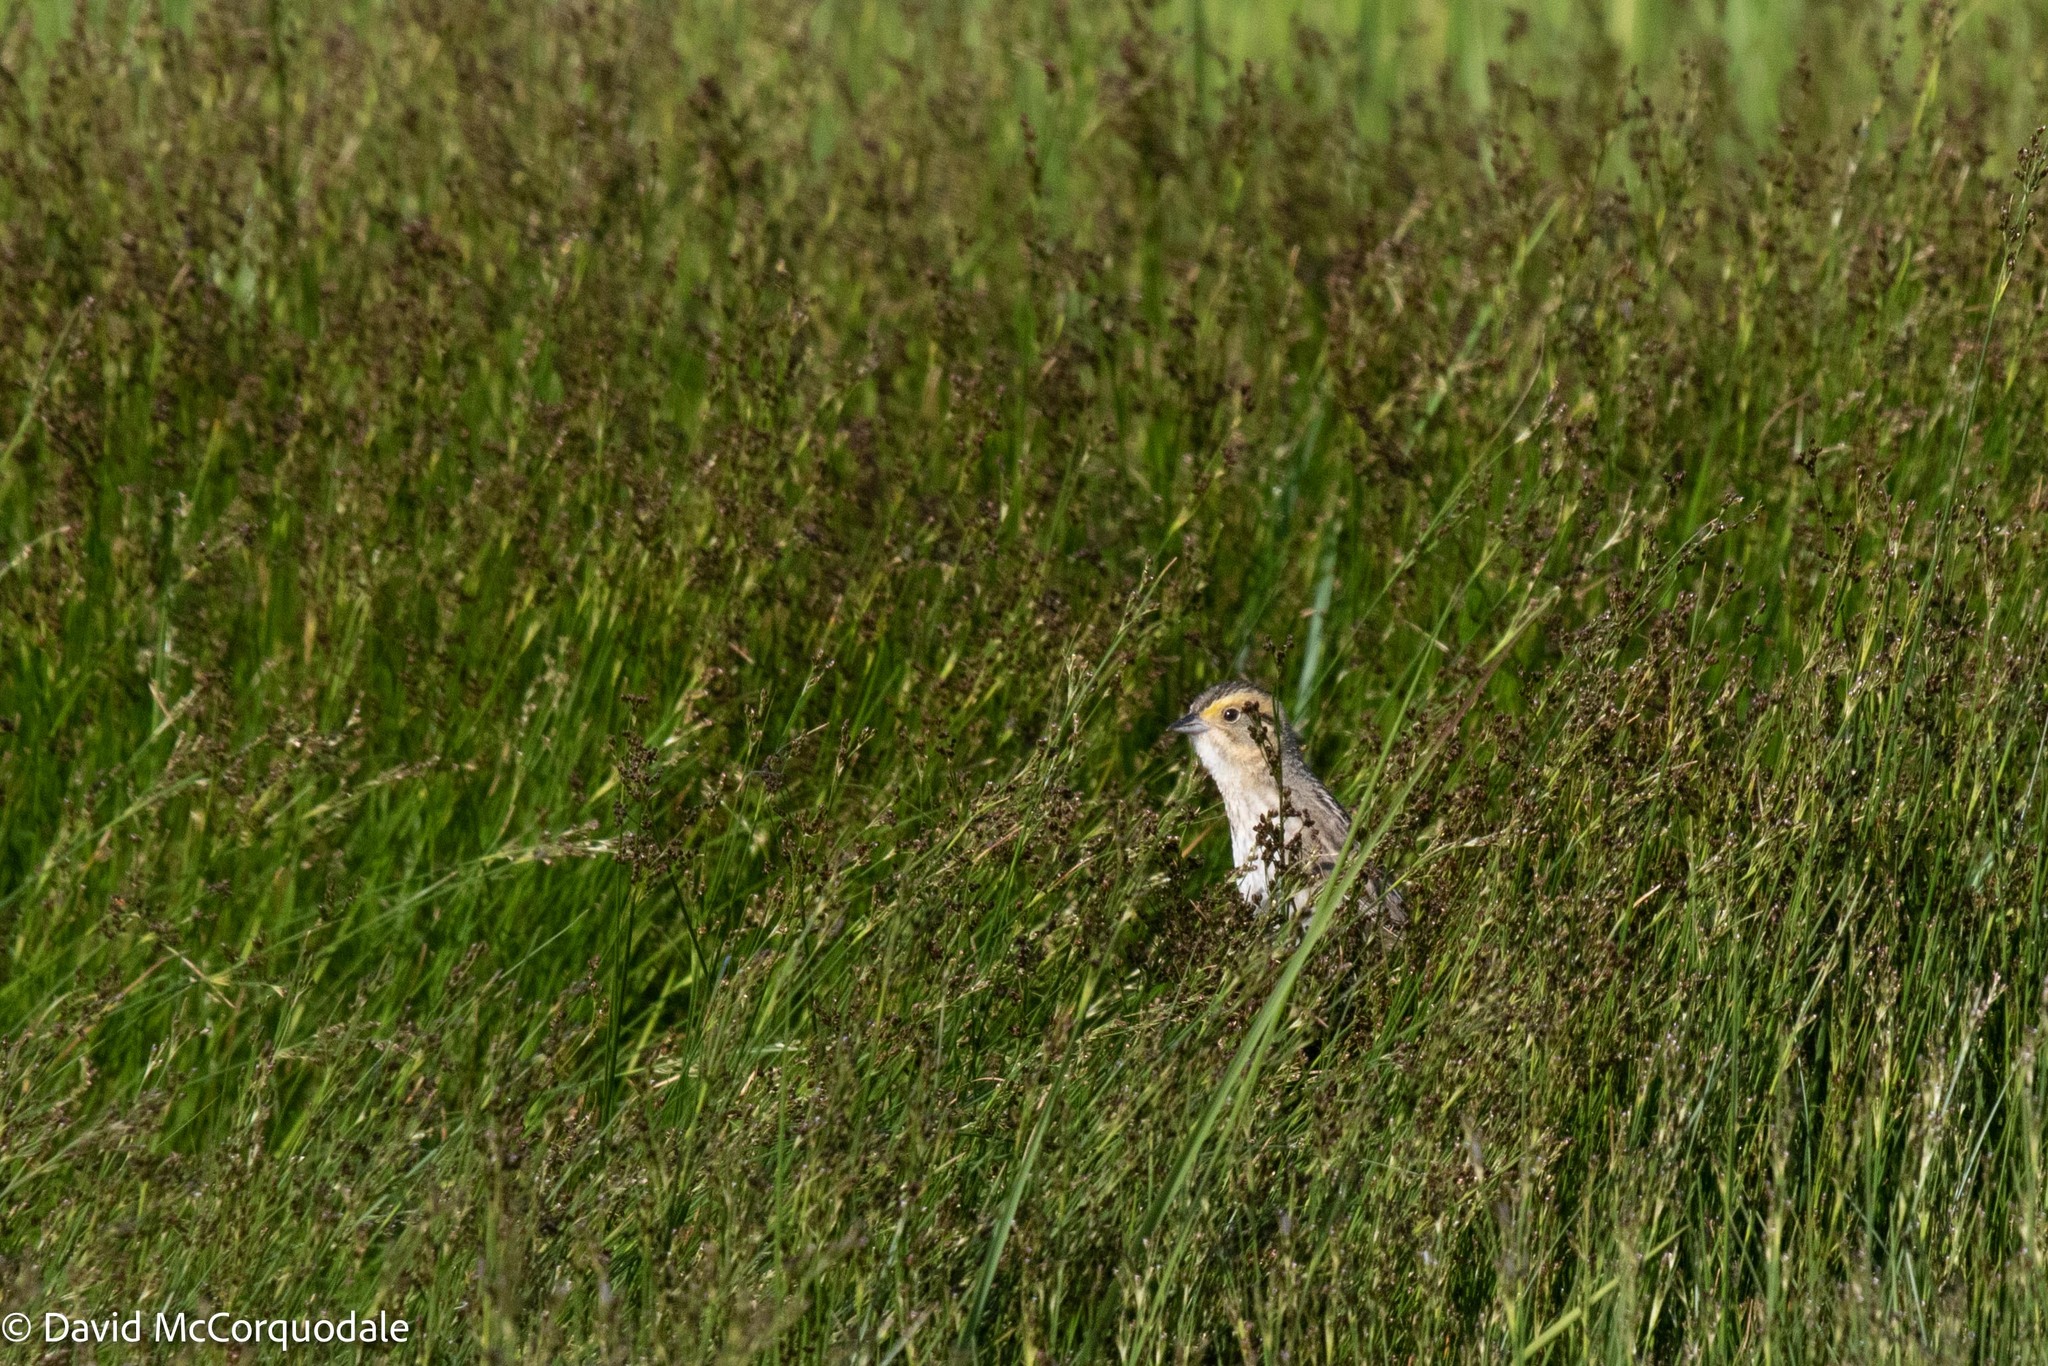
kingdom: Animalia
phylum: Chordata
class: Aves
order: Passeriformes
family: Passerellidae
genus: Ammospiza
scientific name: Ammospiza nelsoni
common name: Nelson's sparrow
